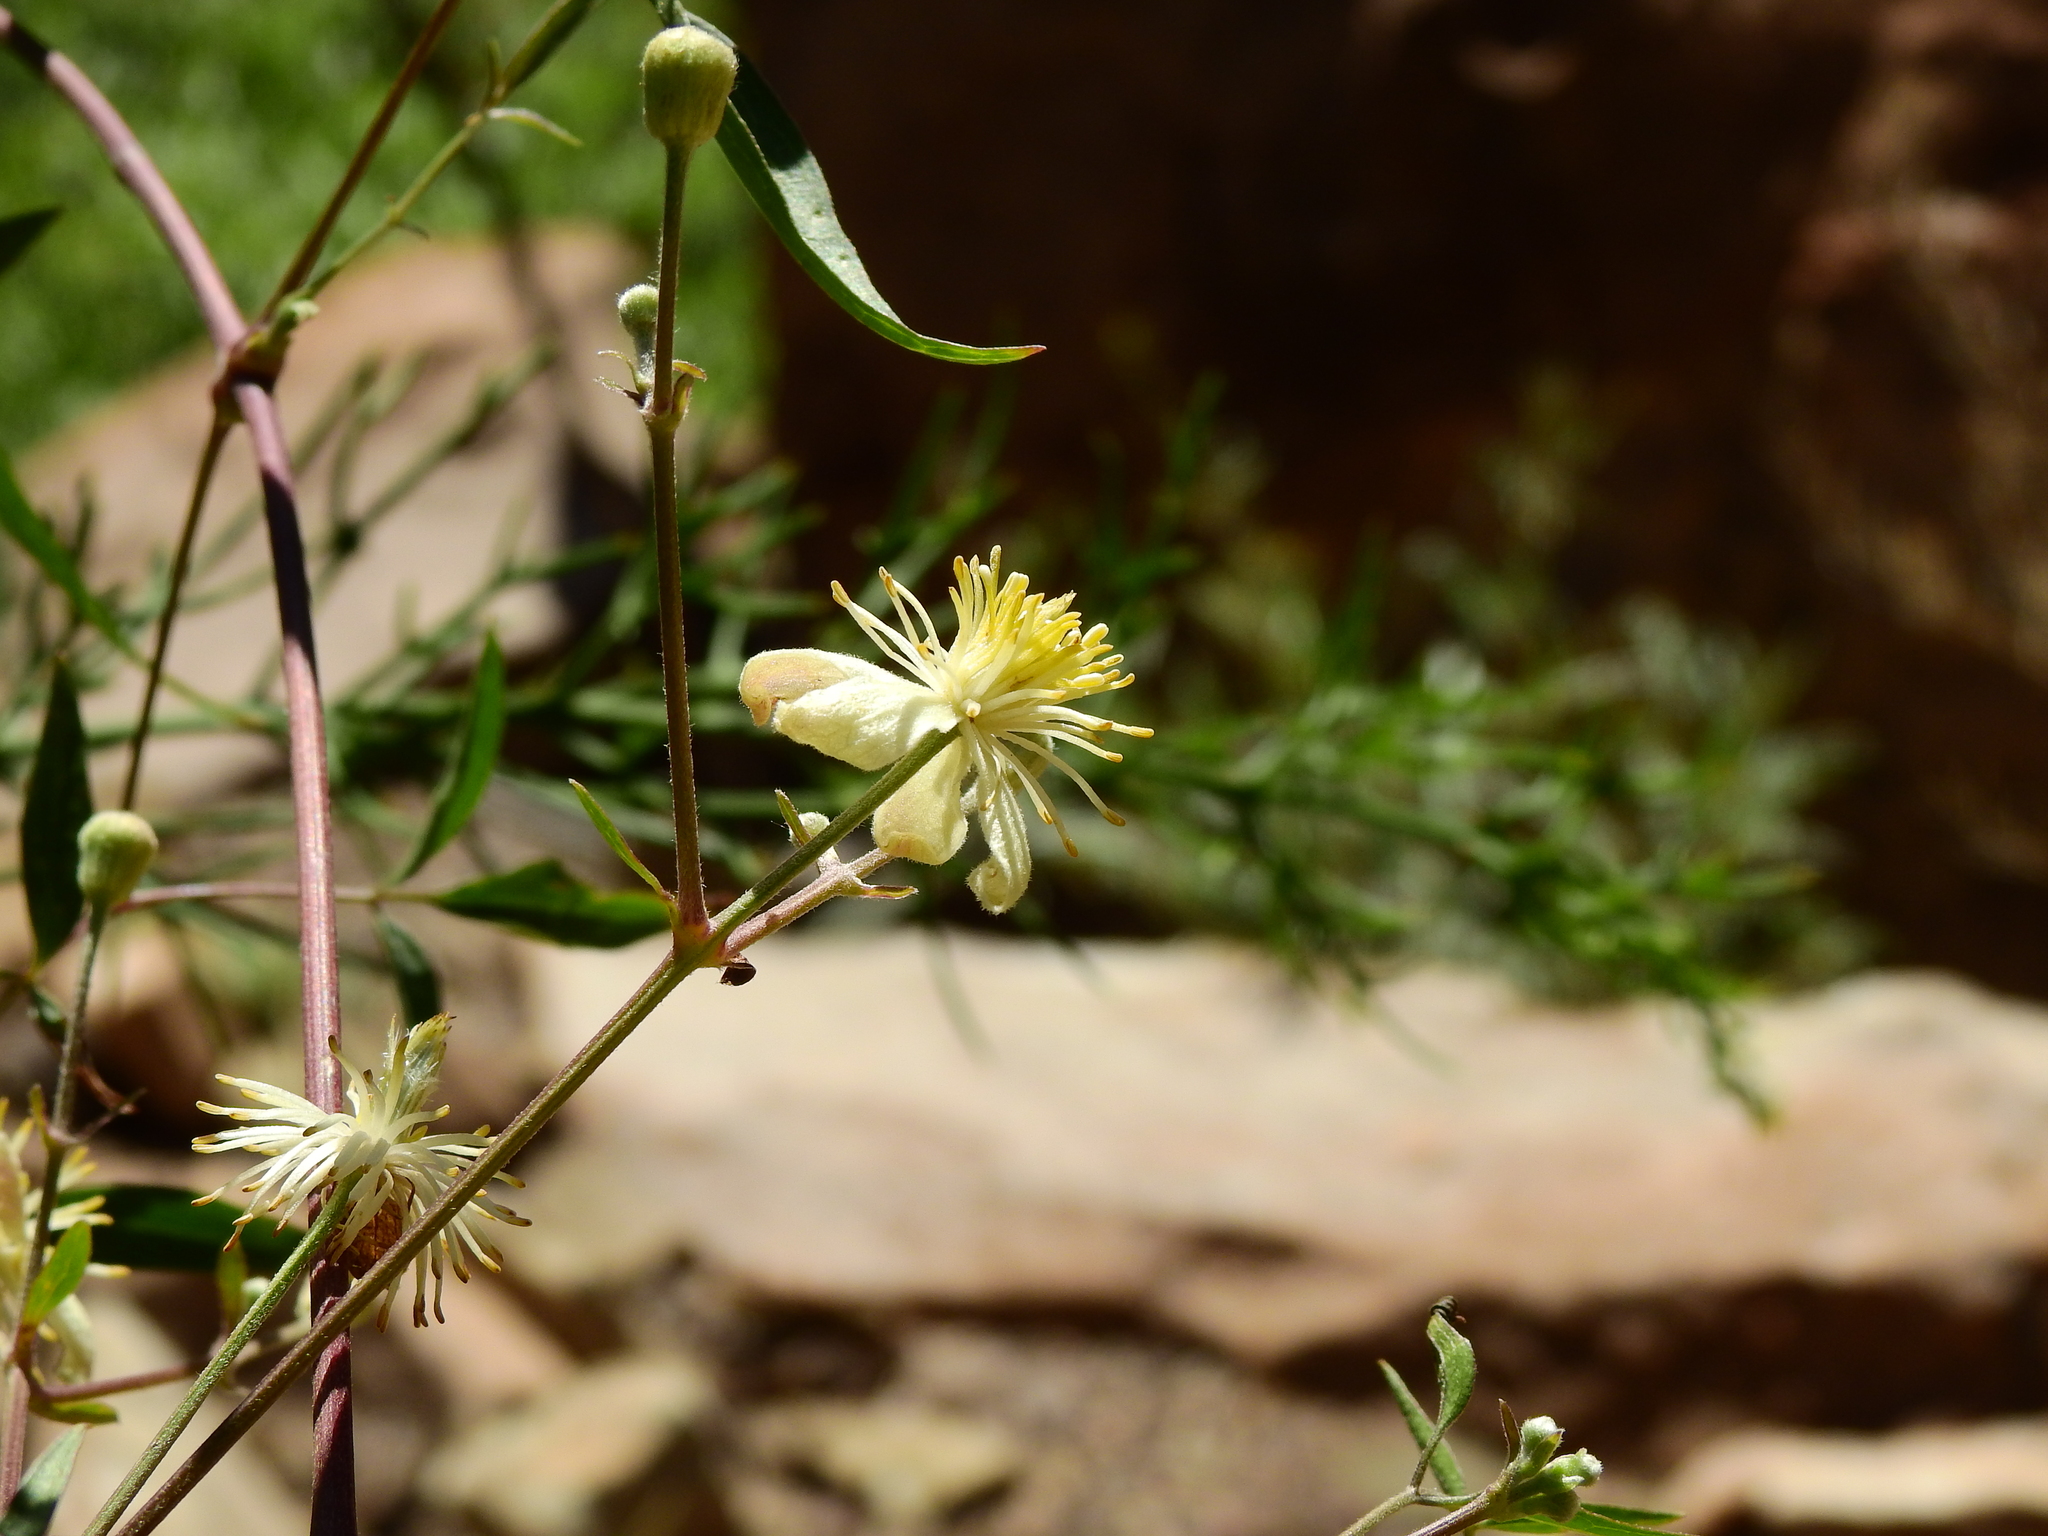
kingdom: Plantae
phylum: Tracheophyta
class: Magnoliopsida
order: Ranunculales
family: Ranunculaceae
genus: Clematis
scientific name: Clematis montevidensis
